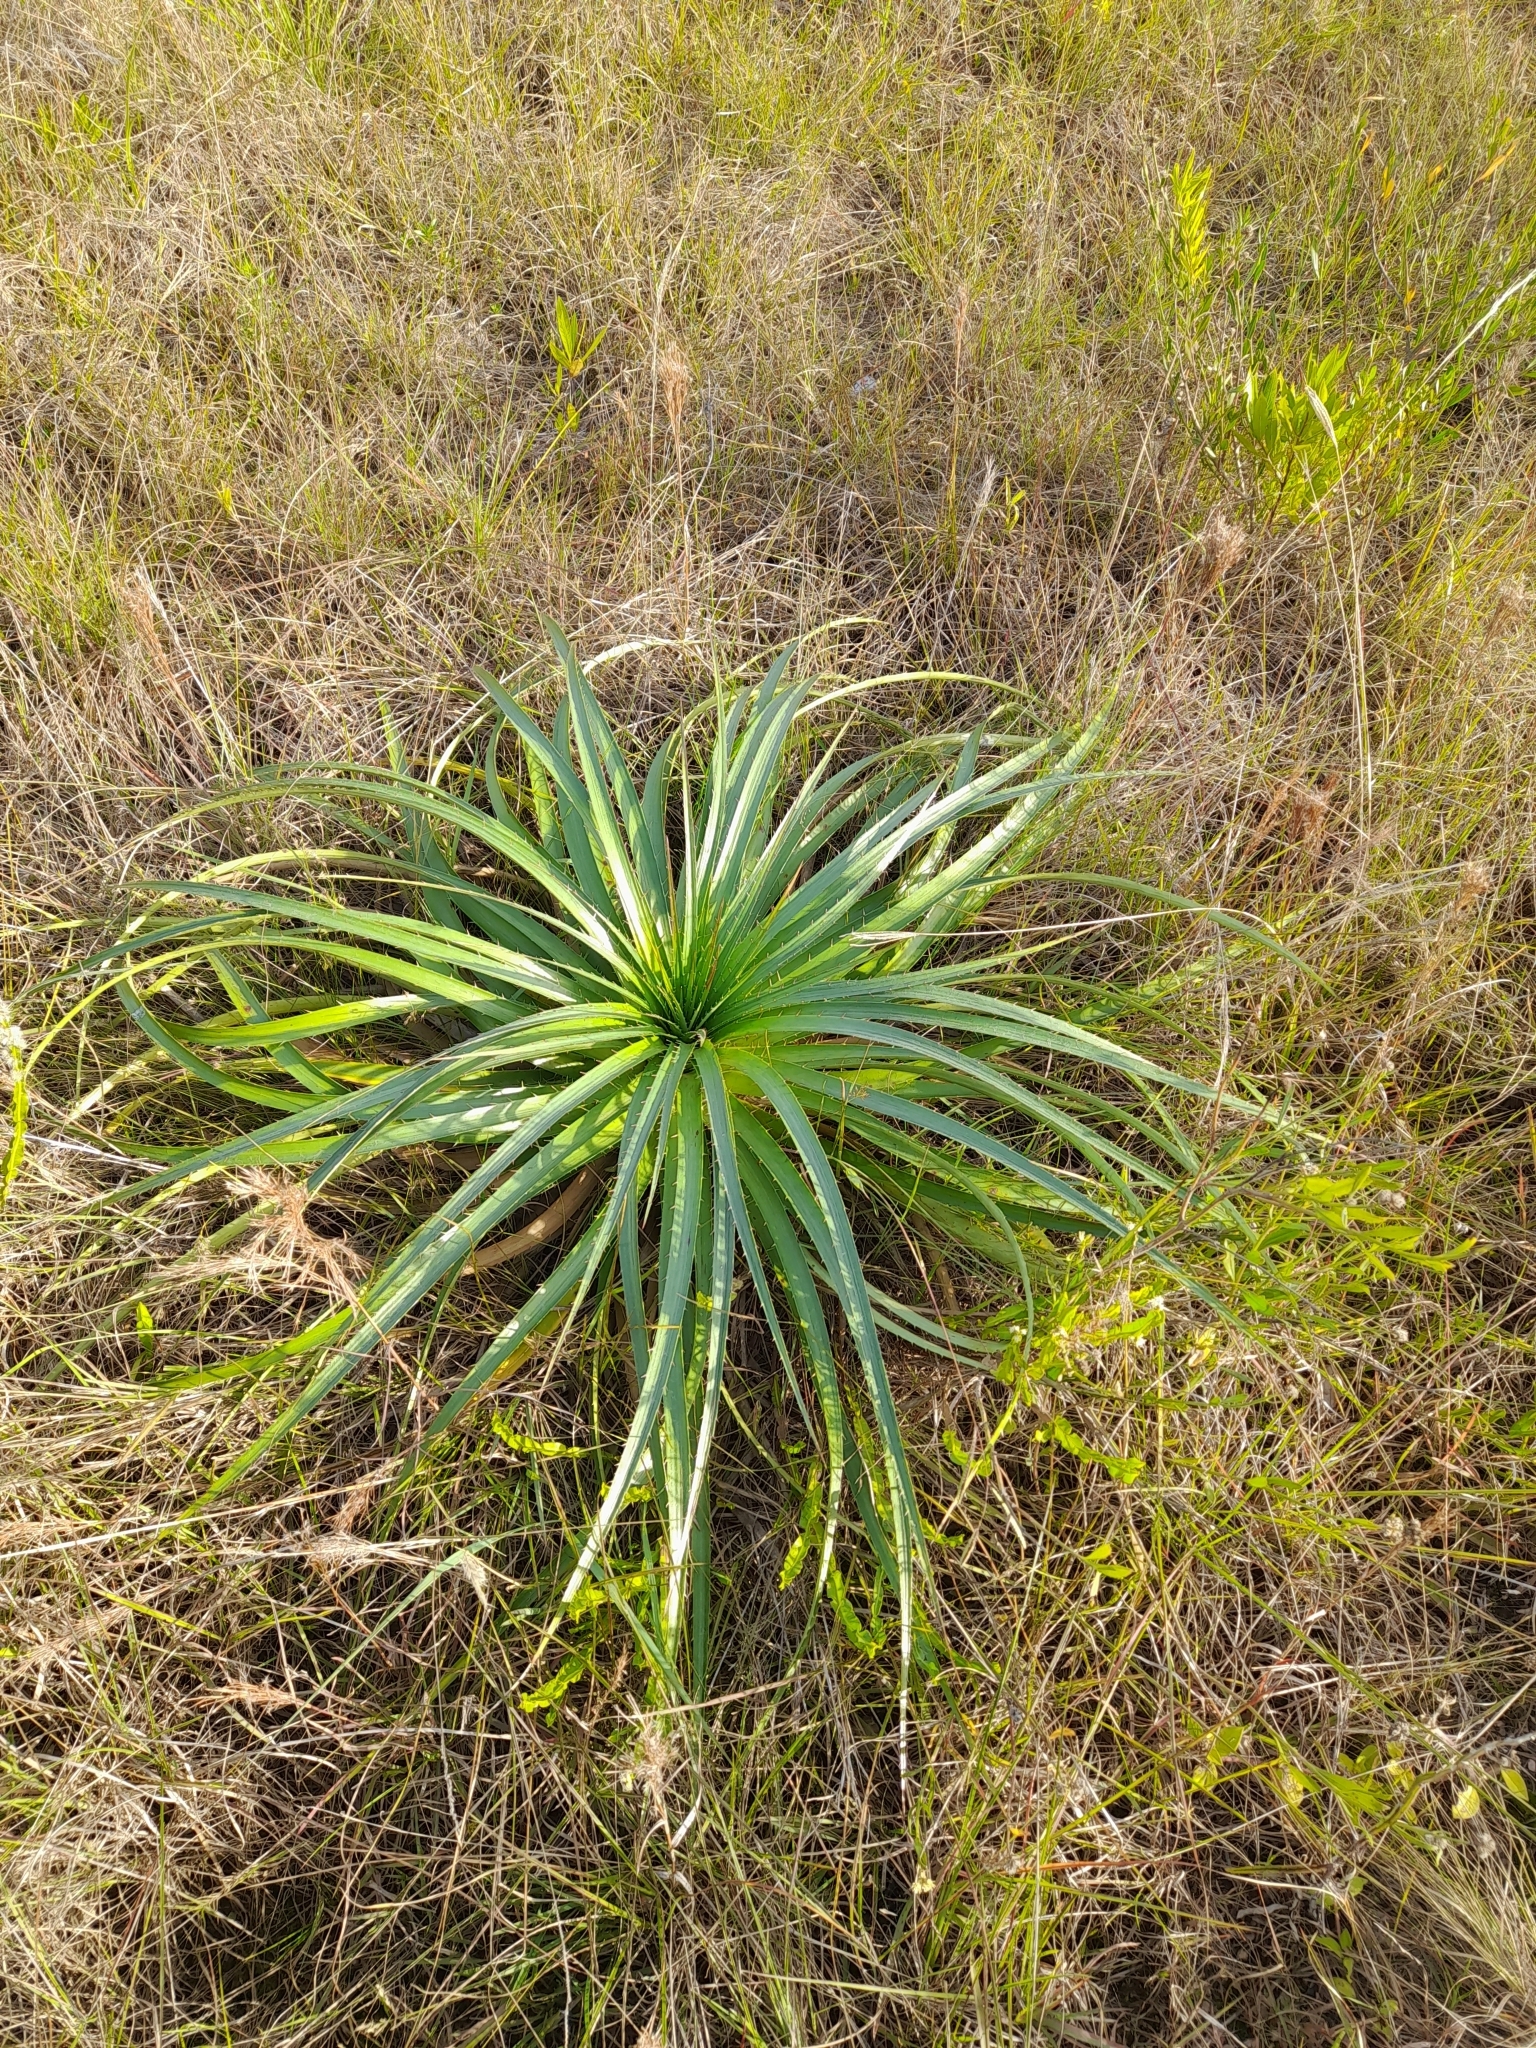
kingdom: Plantae
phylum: Tracheophyta
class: Magnoliopsida
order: Apiales
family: Apiaceae
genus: Eryngium
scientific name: Eryngium horridum
